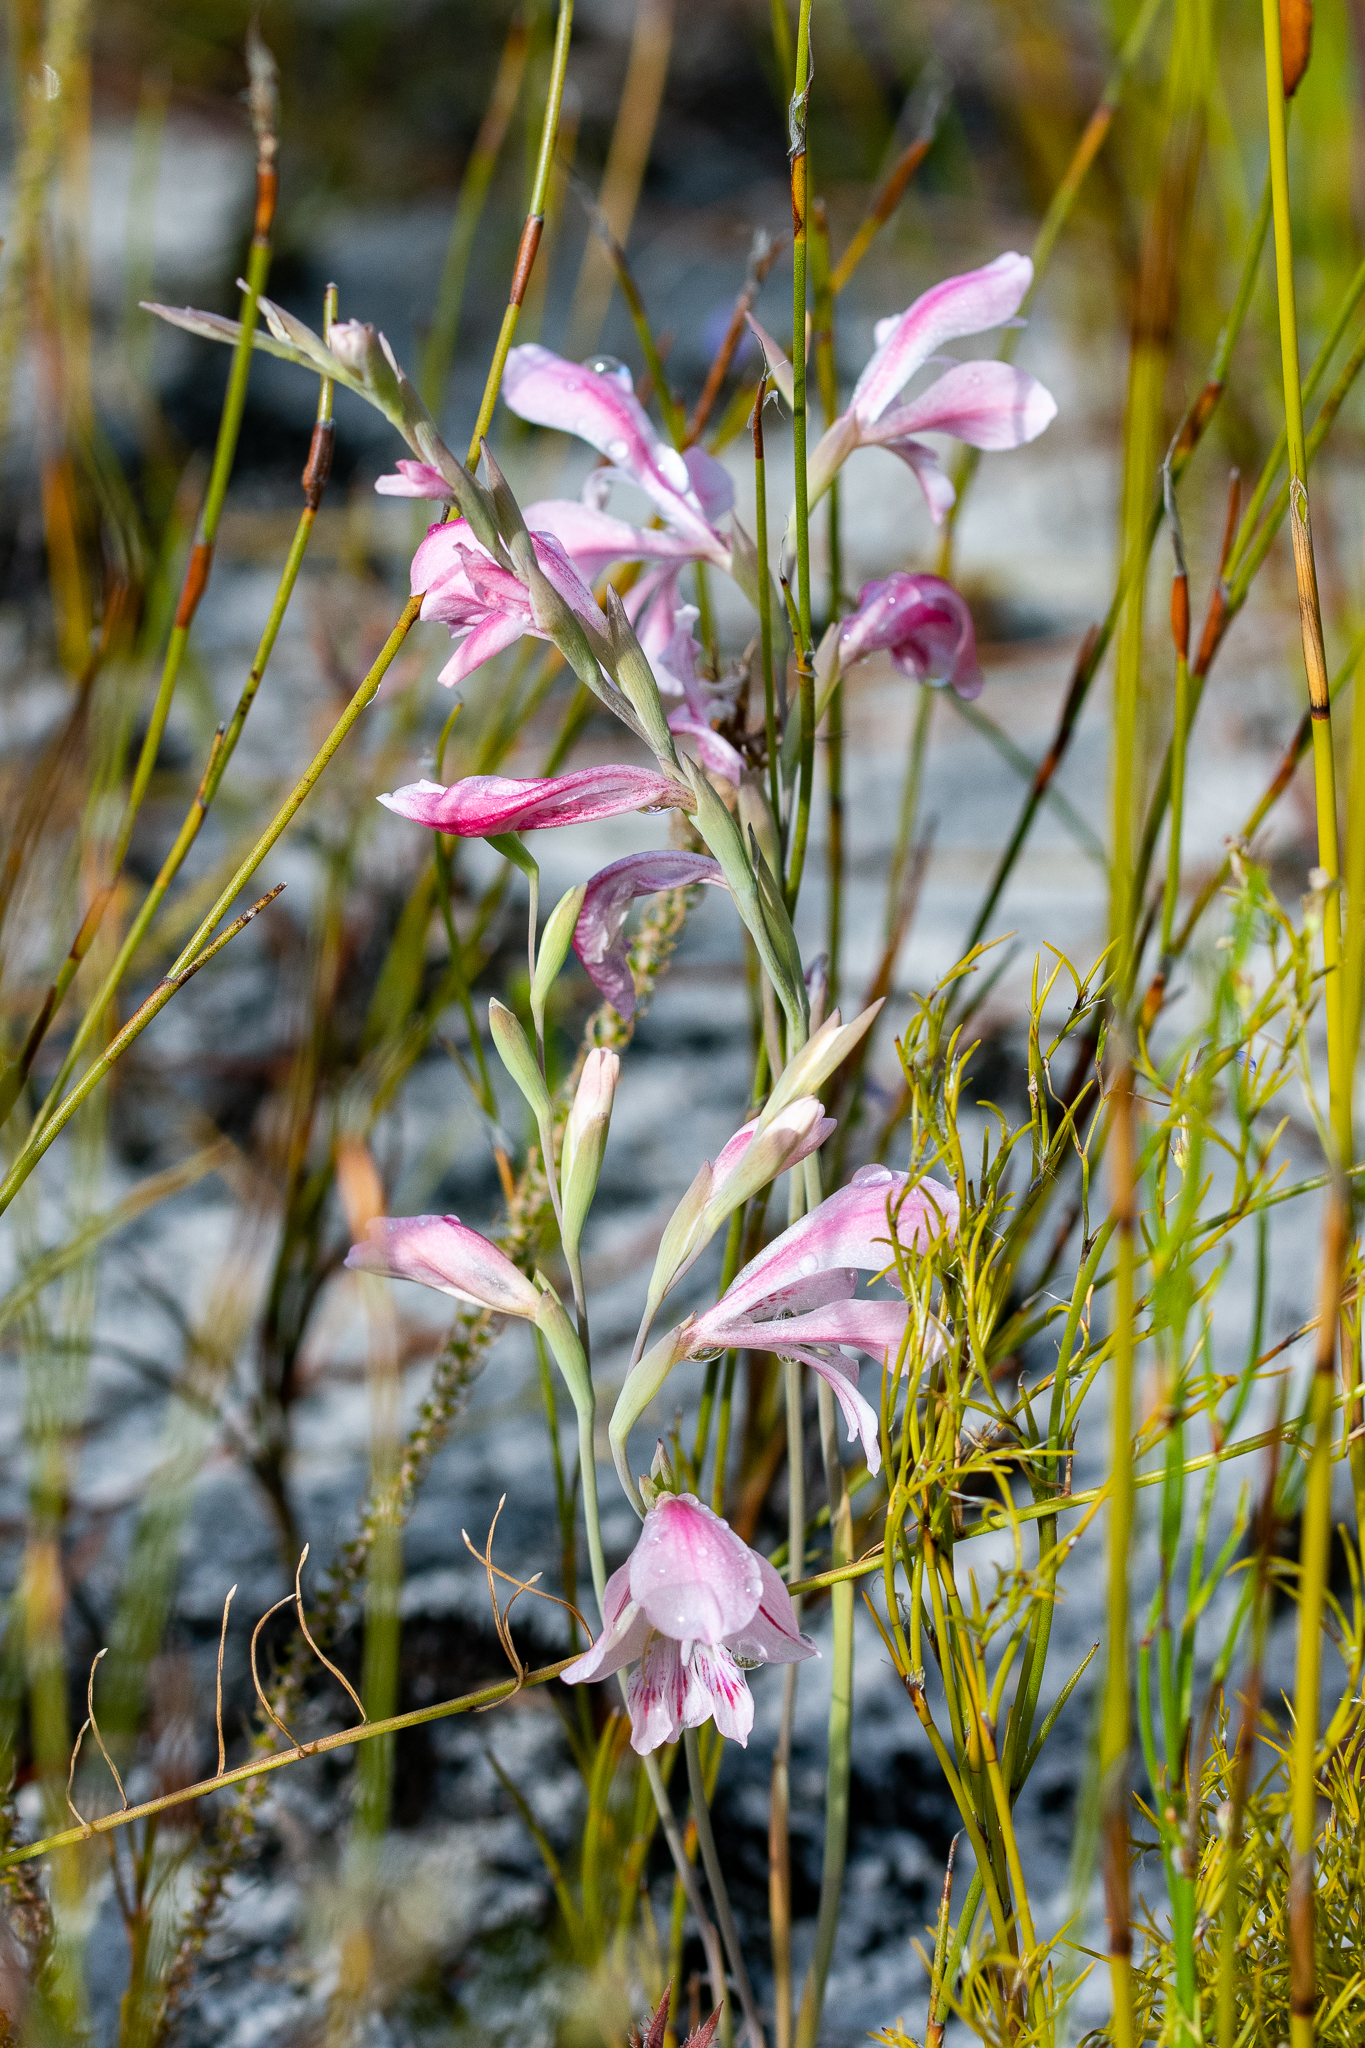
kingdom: Plantae
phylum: Tracheophyta
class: Liliopsida
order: Asparagales
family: Iridaceae
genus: Gladiolus
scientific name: Gladiolus brevifolius
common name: March pypie
